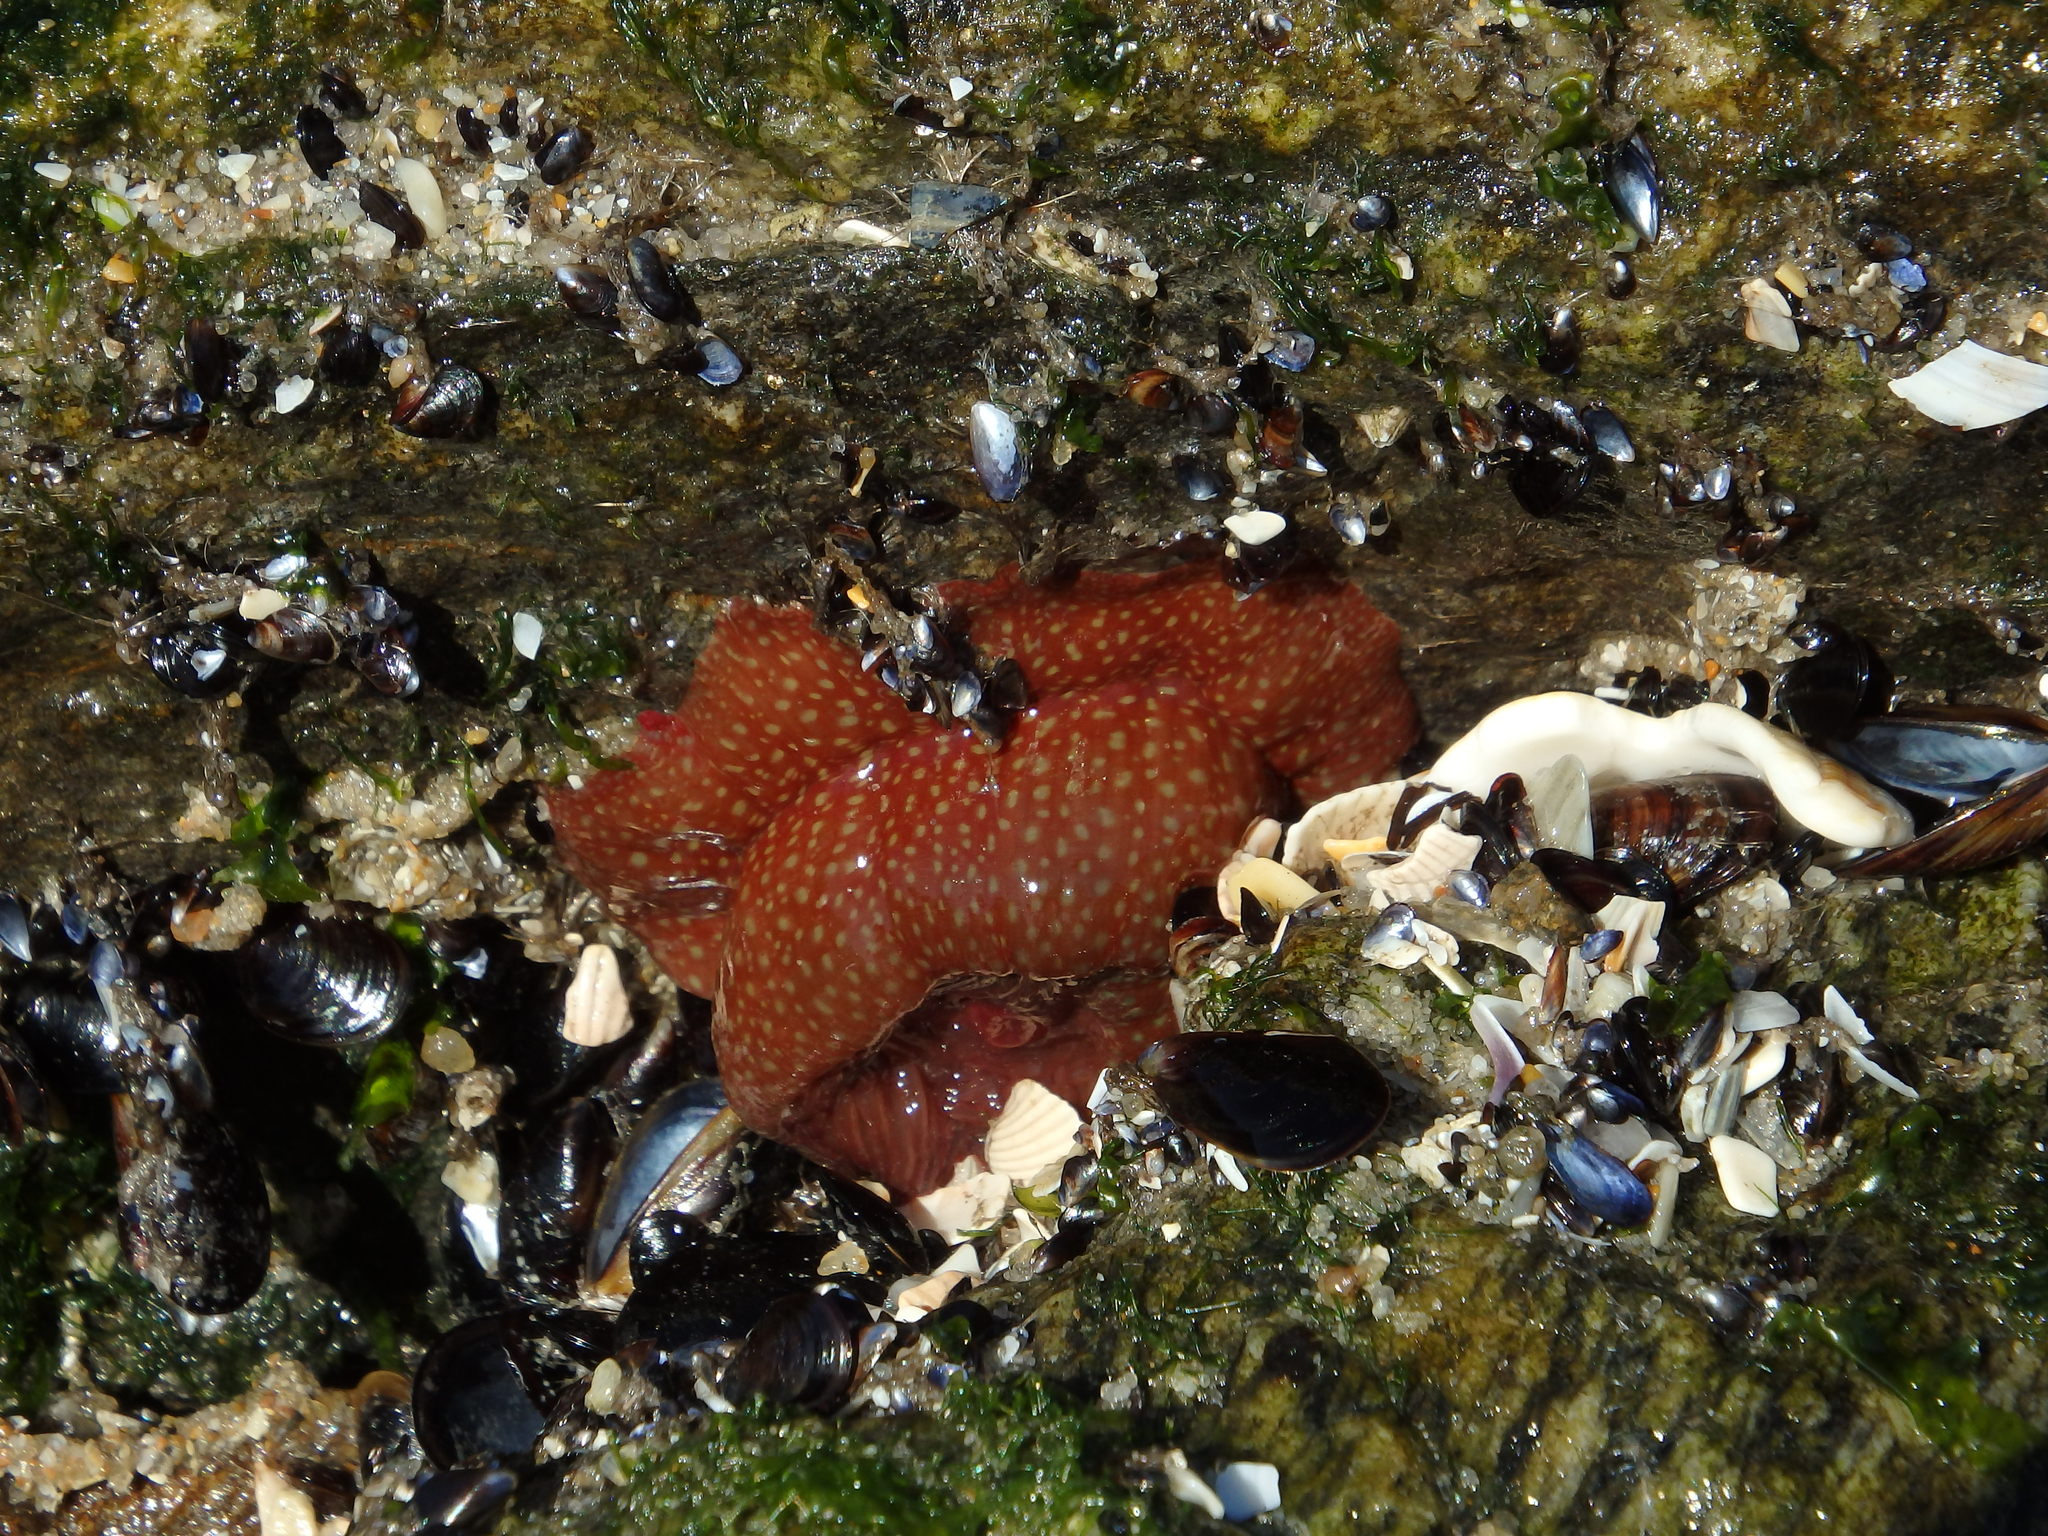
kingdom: Animalia
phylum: Cnidaria
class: Anthozoa
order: Actiniaria
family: Actiniidae
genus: Actinia
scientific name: Actinia fragacea
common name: Strawberry anemone
